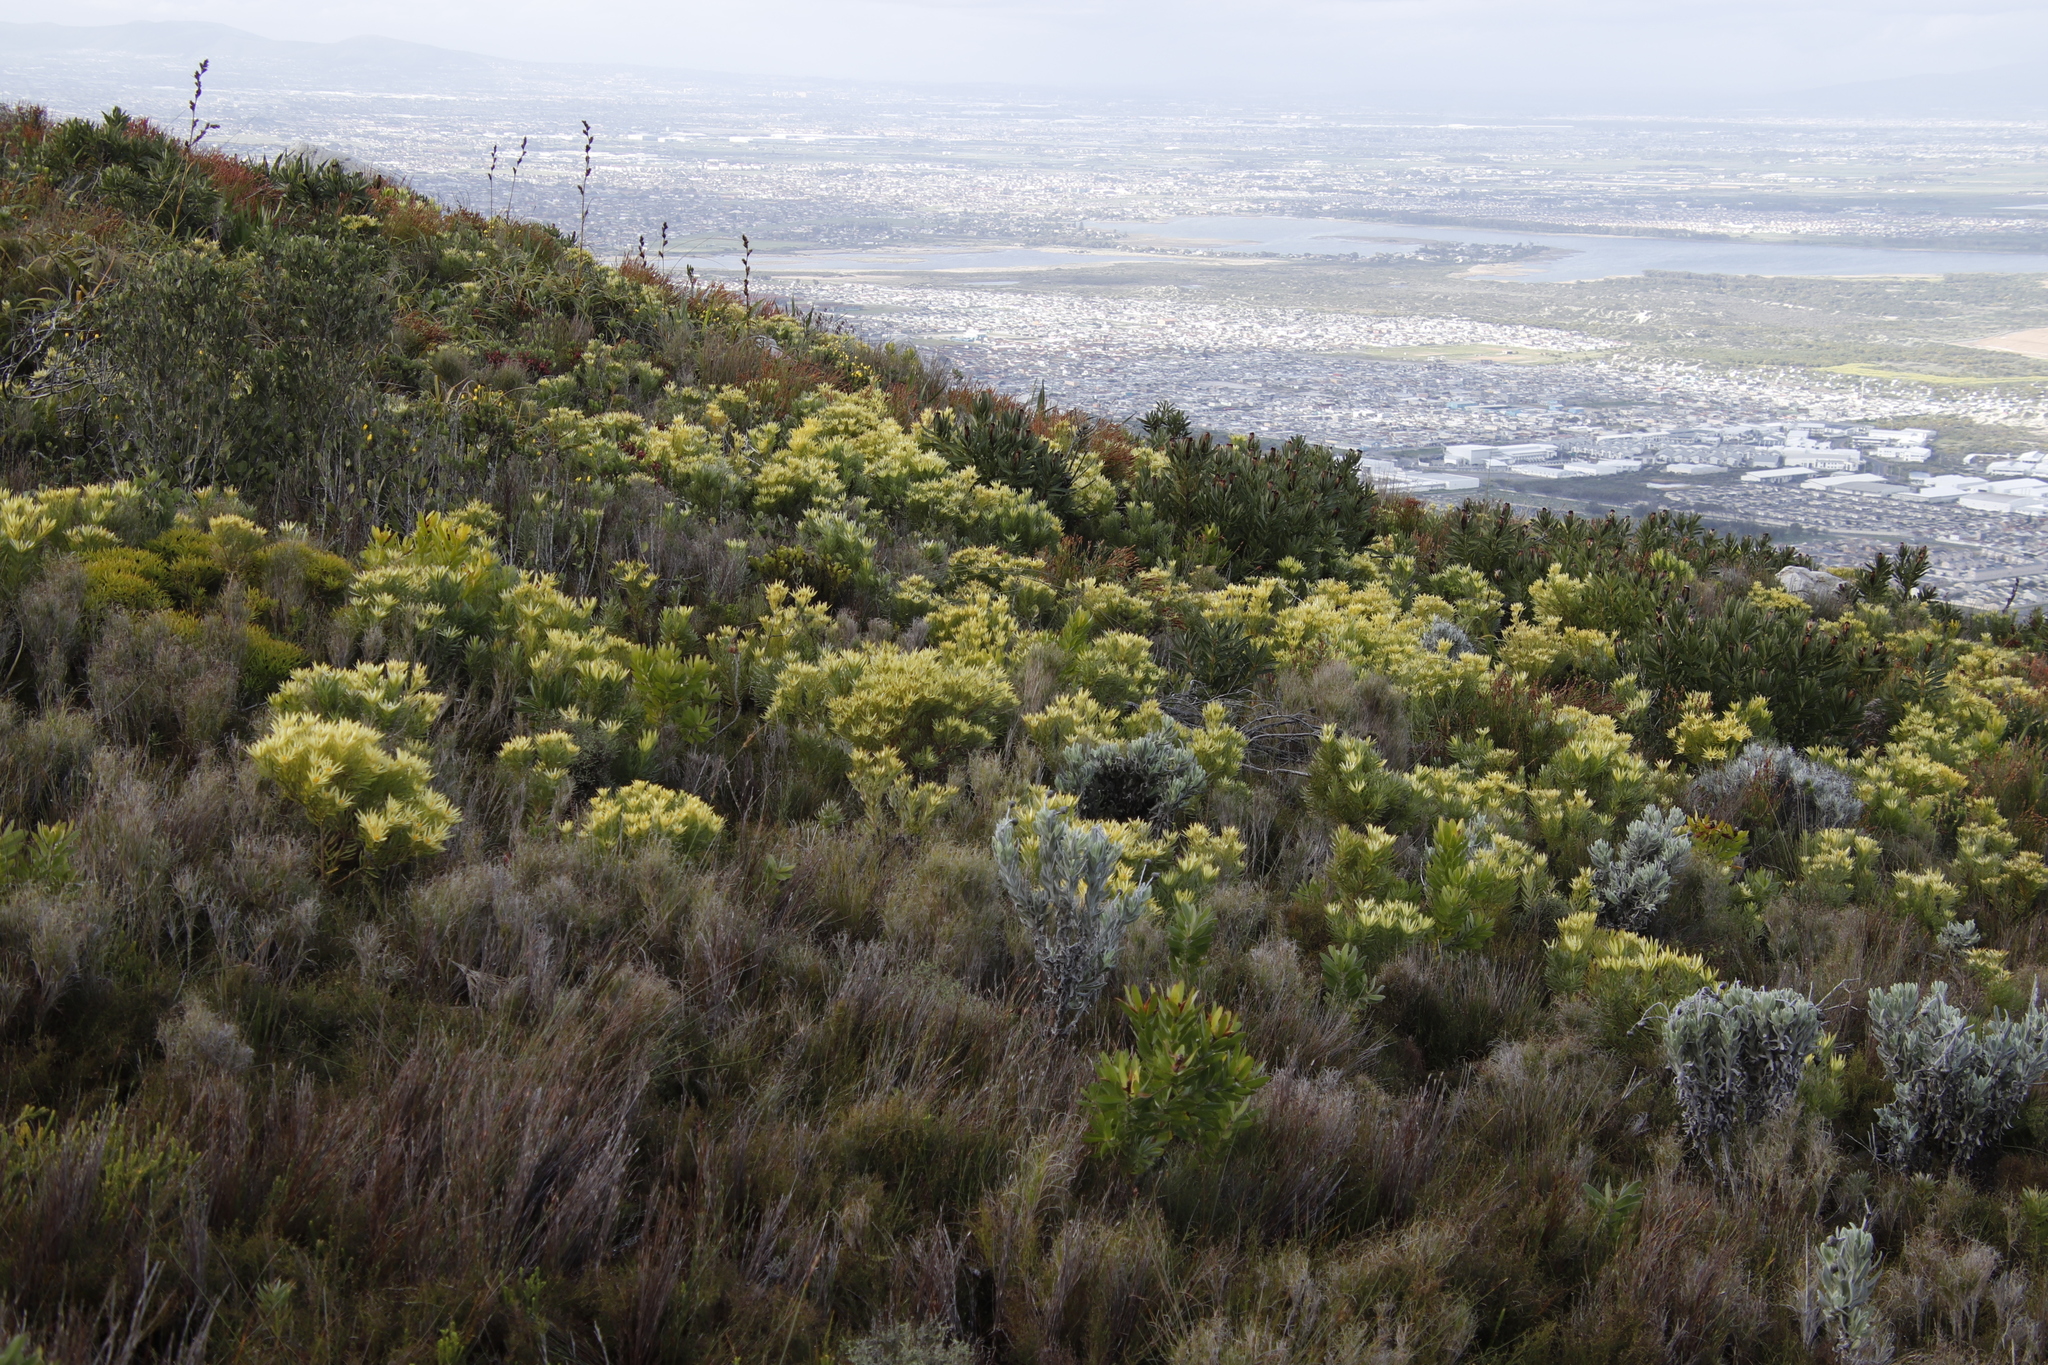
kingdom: Plantae
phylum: Tracheophyta
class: Magnoliopsida
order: Proteales
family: Proteaceae
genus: Leucadendron
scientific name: Leucadendron laureolum
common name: Golden sunshinebush
